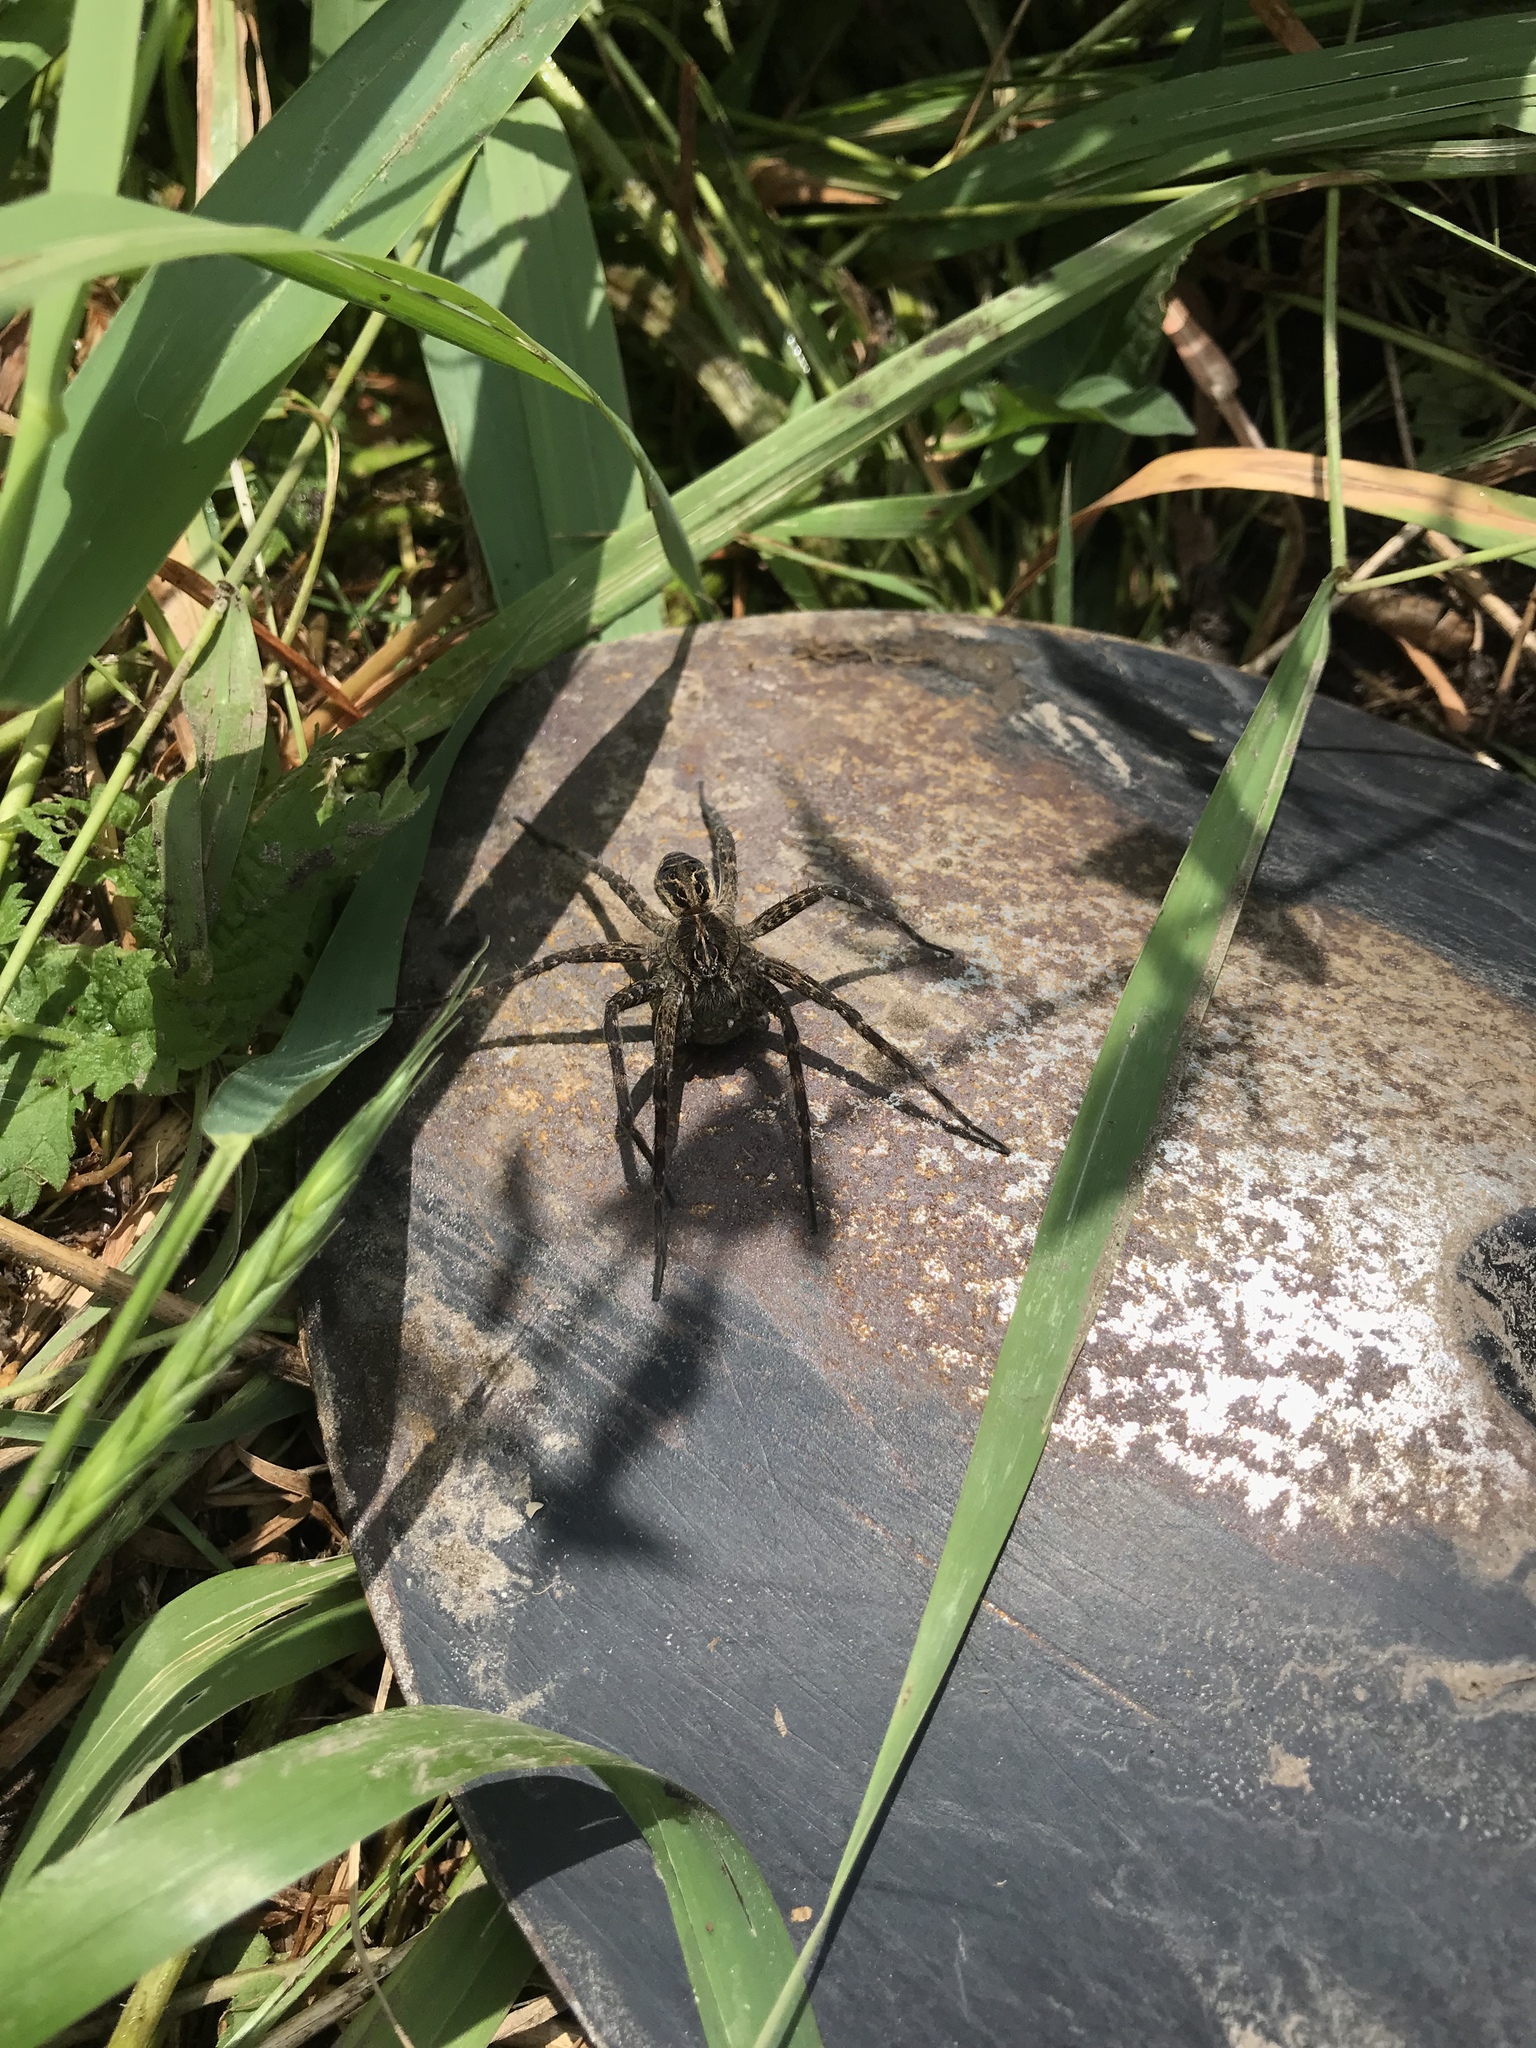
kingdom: Animalia
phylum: Arthropoda
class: Arachnida
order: Araneae
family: Pisauridae
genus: Dolomedes
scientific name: Dolomedes scriptus
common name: Striped fishing spider
